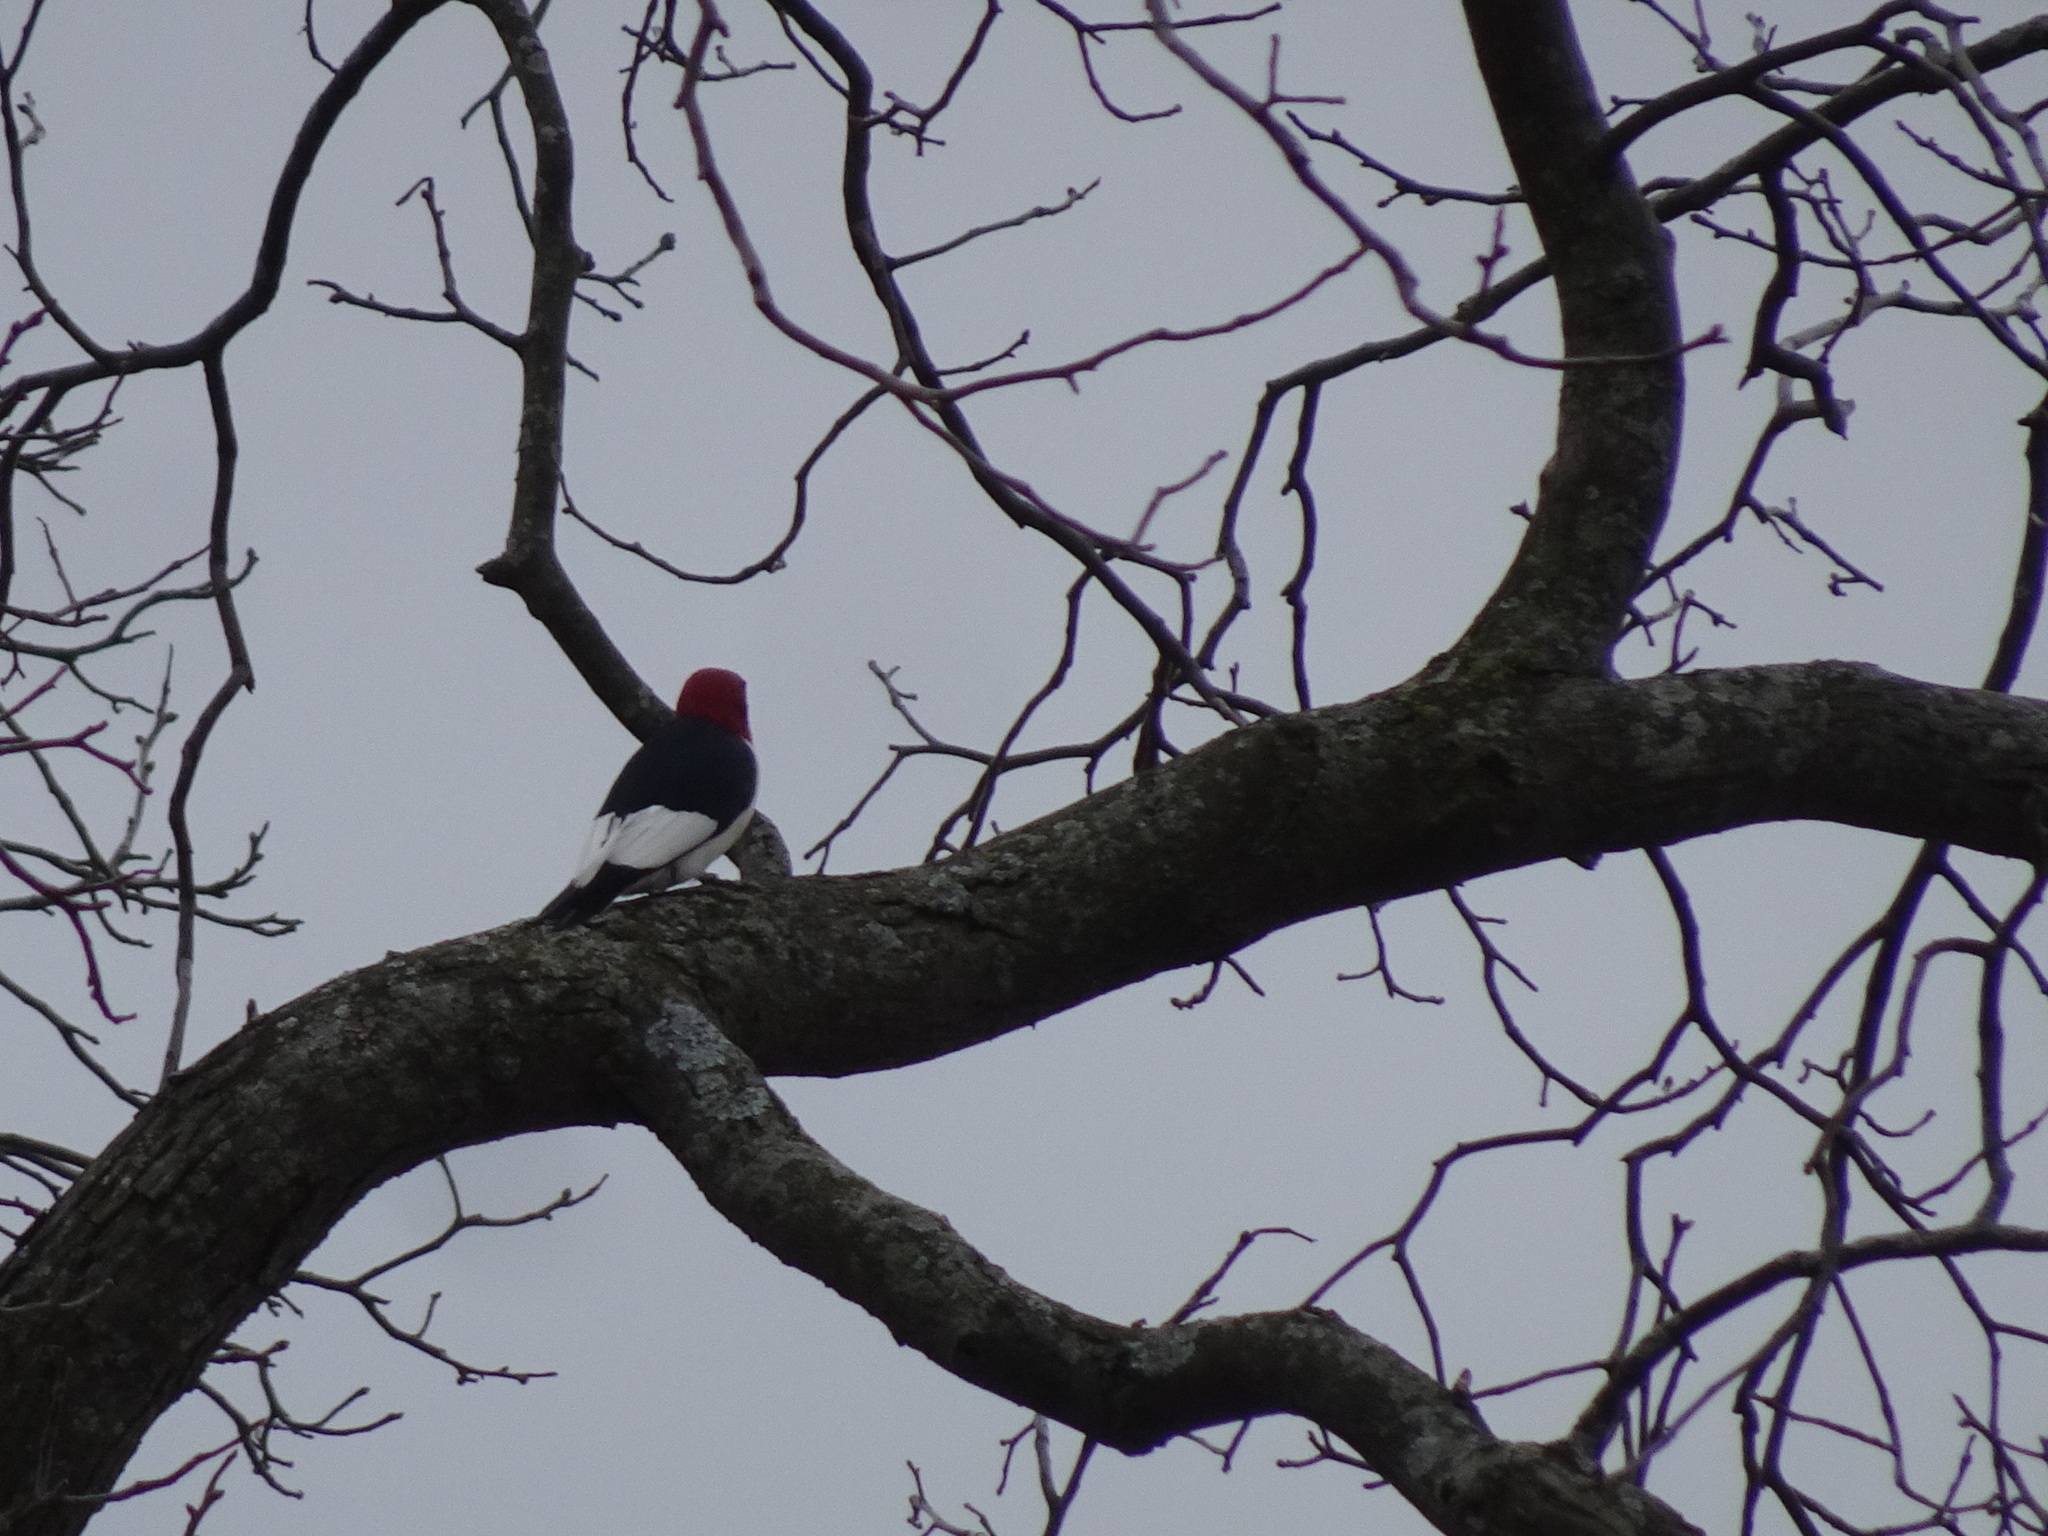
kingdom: Animalia
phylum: Chordata
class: Aves
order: Piciformes
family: Picidae
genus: Melanerpes
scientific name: Melanerpes erythrocephalus
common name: Red-headed woodpecker
